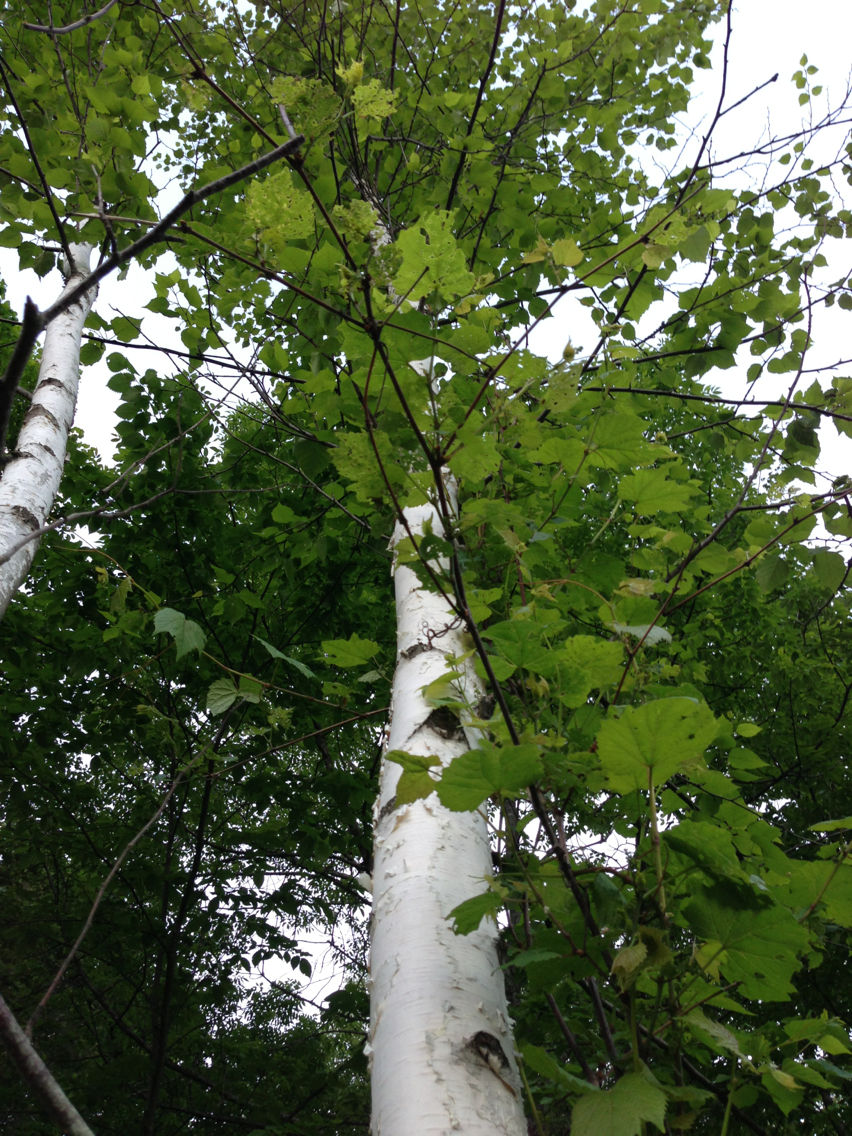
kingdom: Plantae
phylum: Tracheophyta
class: Magnoliopsida
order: Fagales
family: Betulaceae
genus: Betula
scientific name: Betula papyrifera
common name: Paper birch
